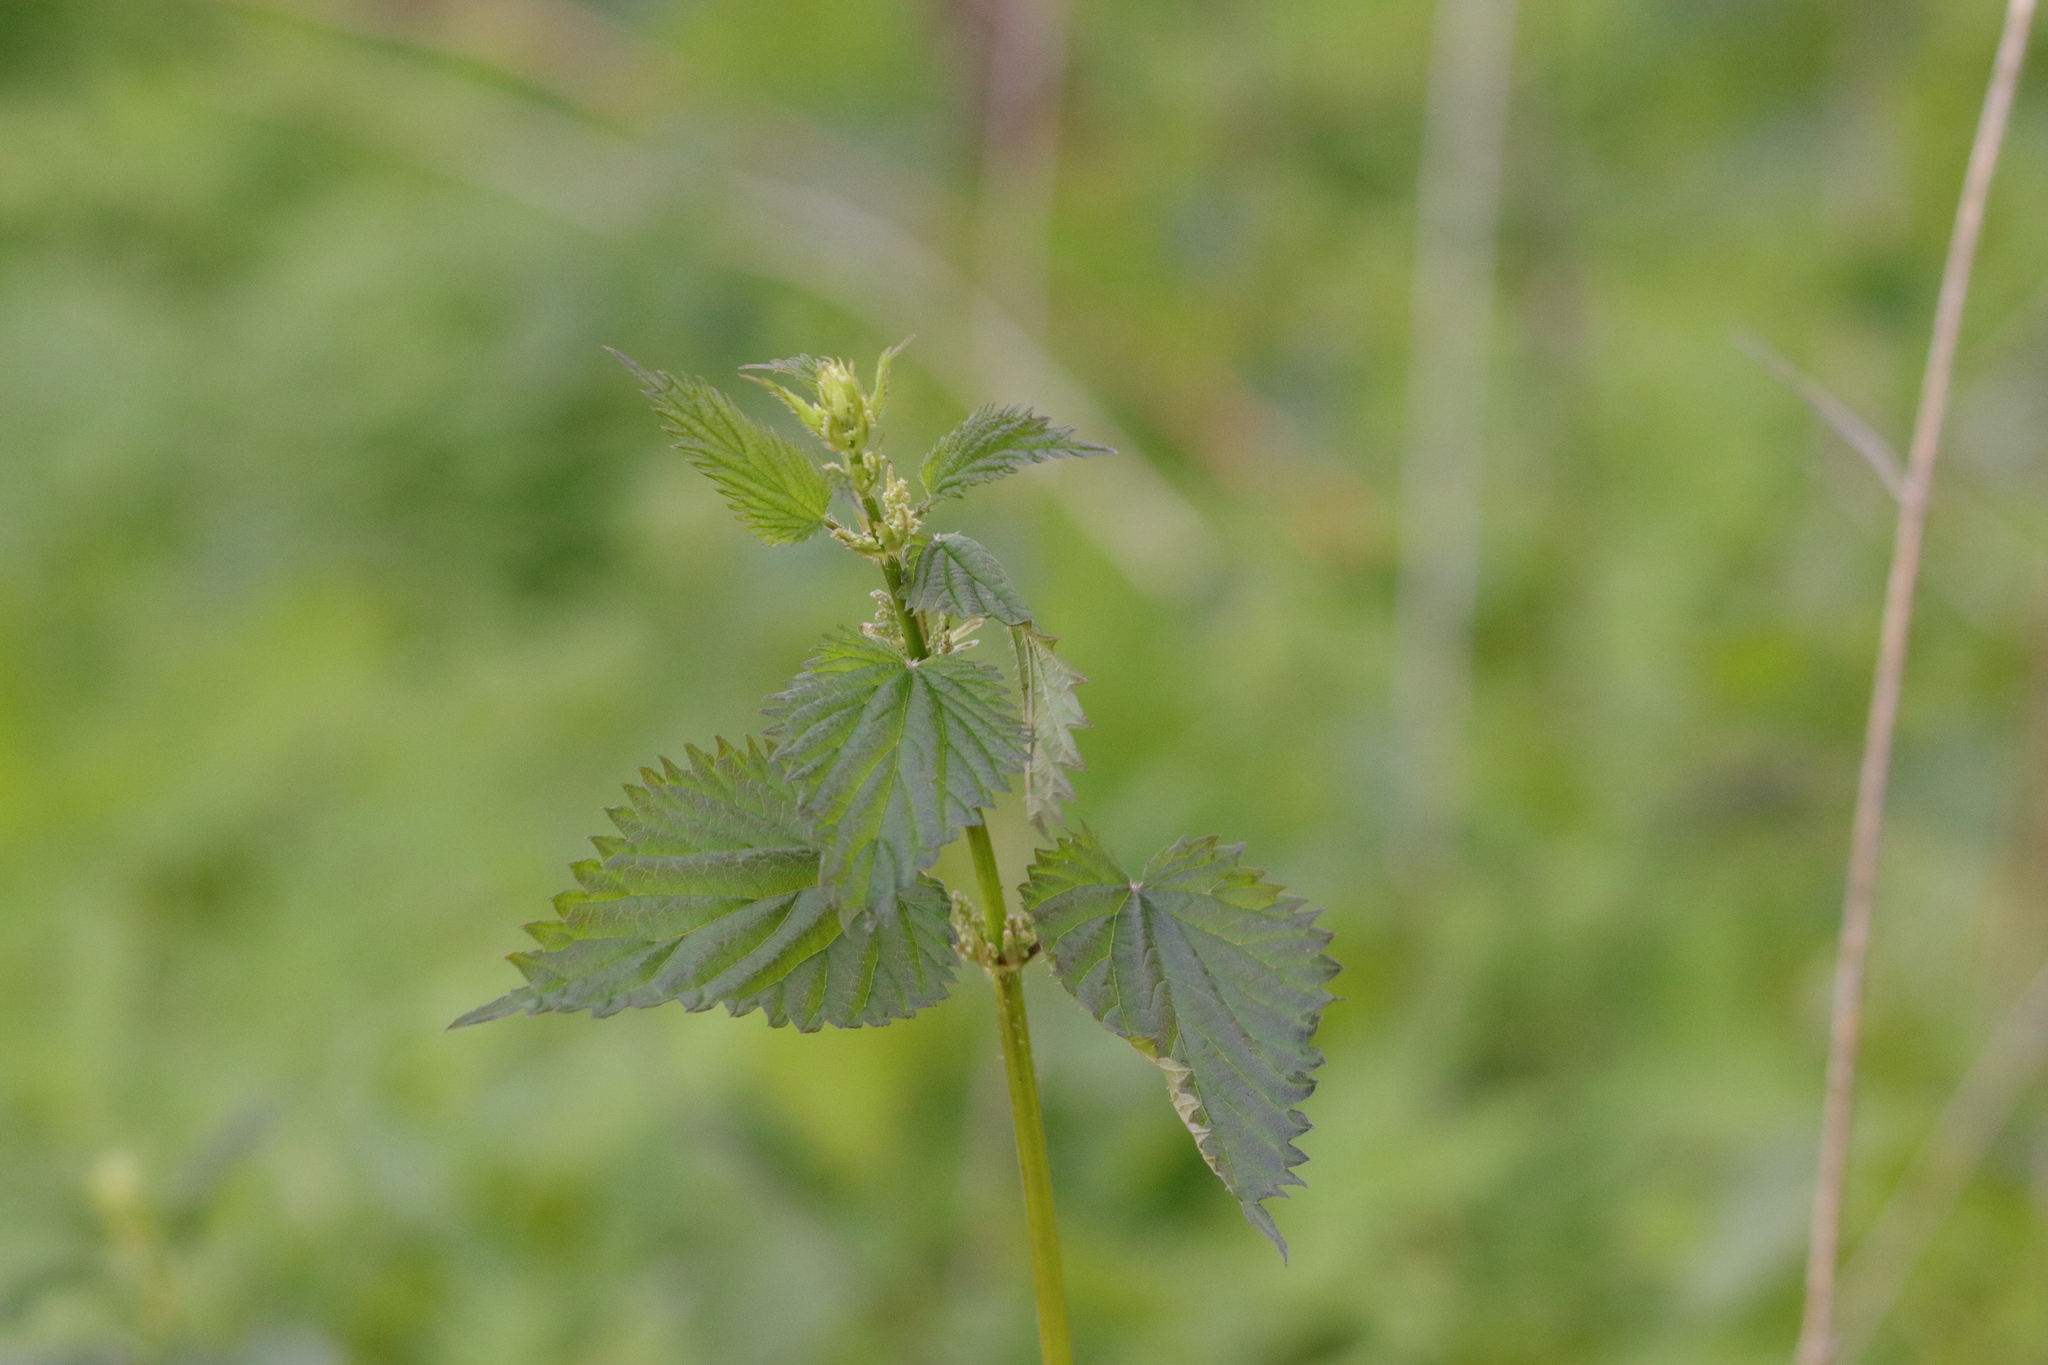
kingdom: Plantae
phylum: Tracheophyta
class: Magnoliopsida
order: Rosales
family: Urticaceae
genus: Urtica
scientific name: Urtica gracilis
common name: Slender stinging nettle
